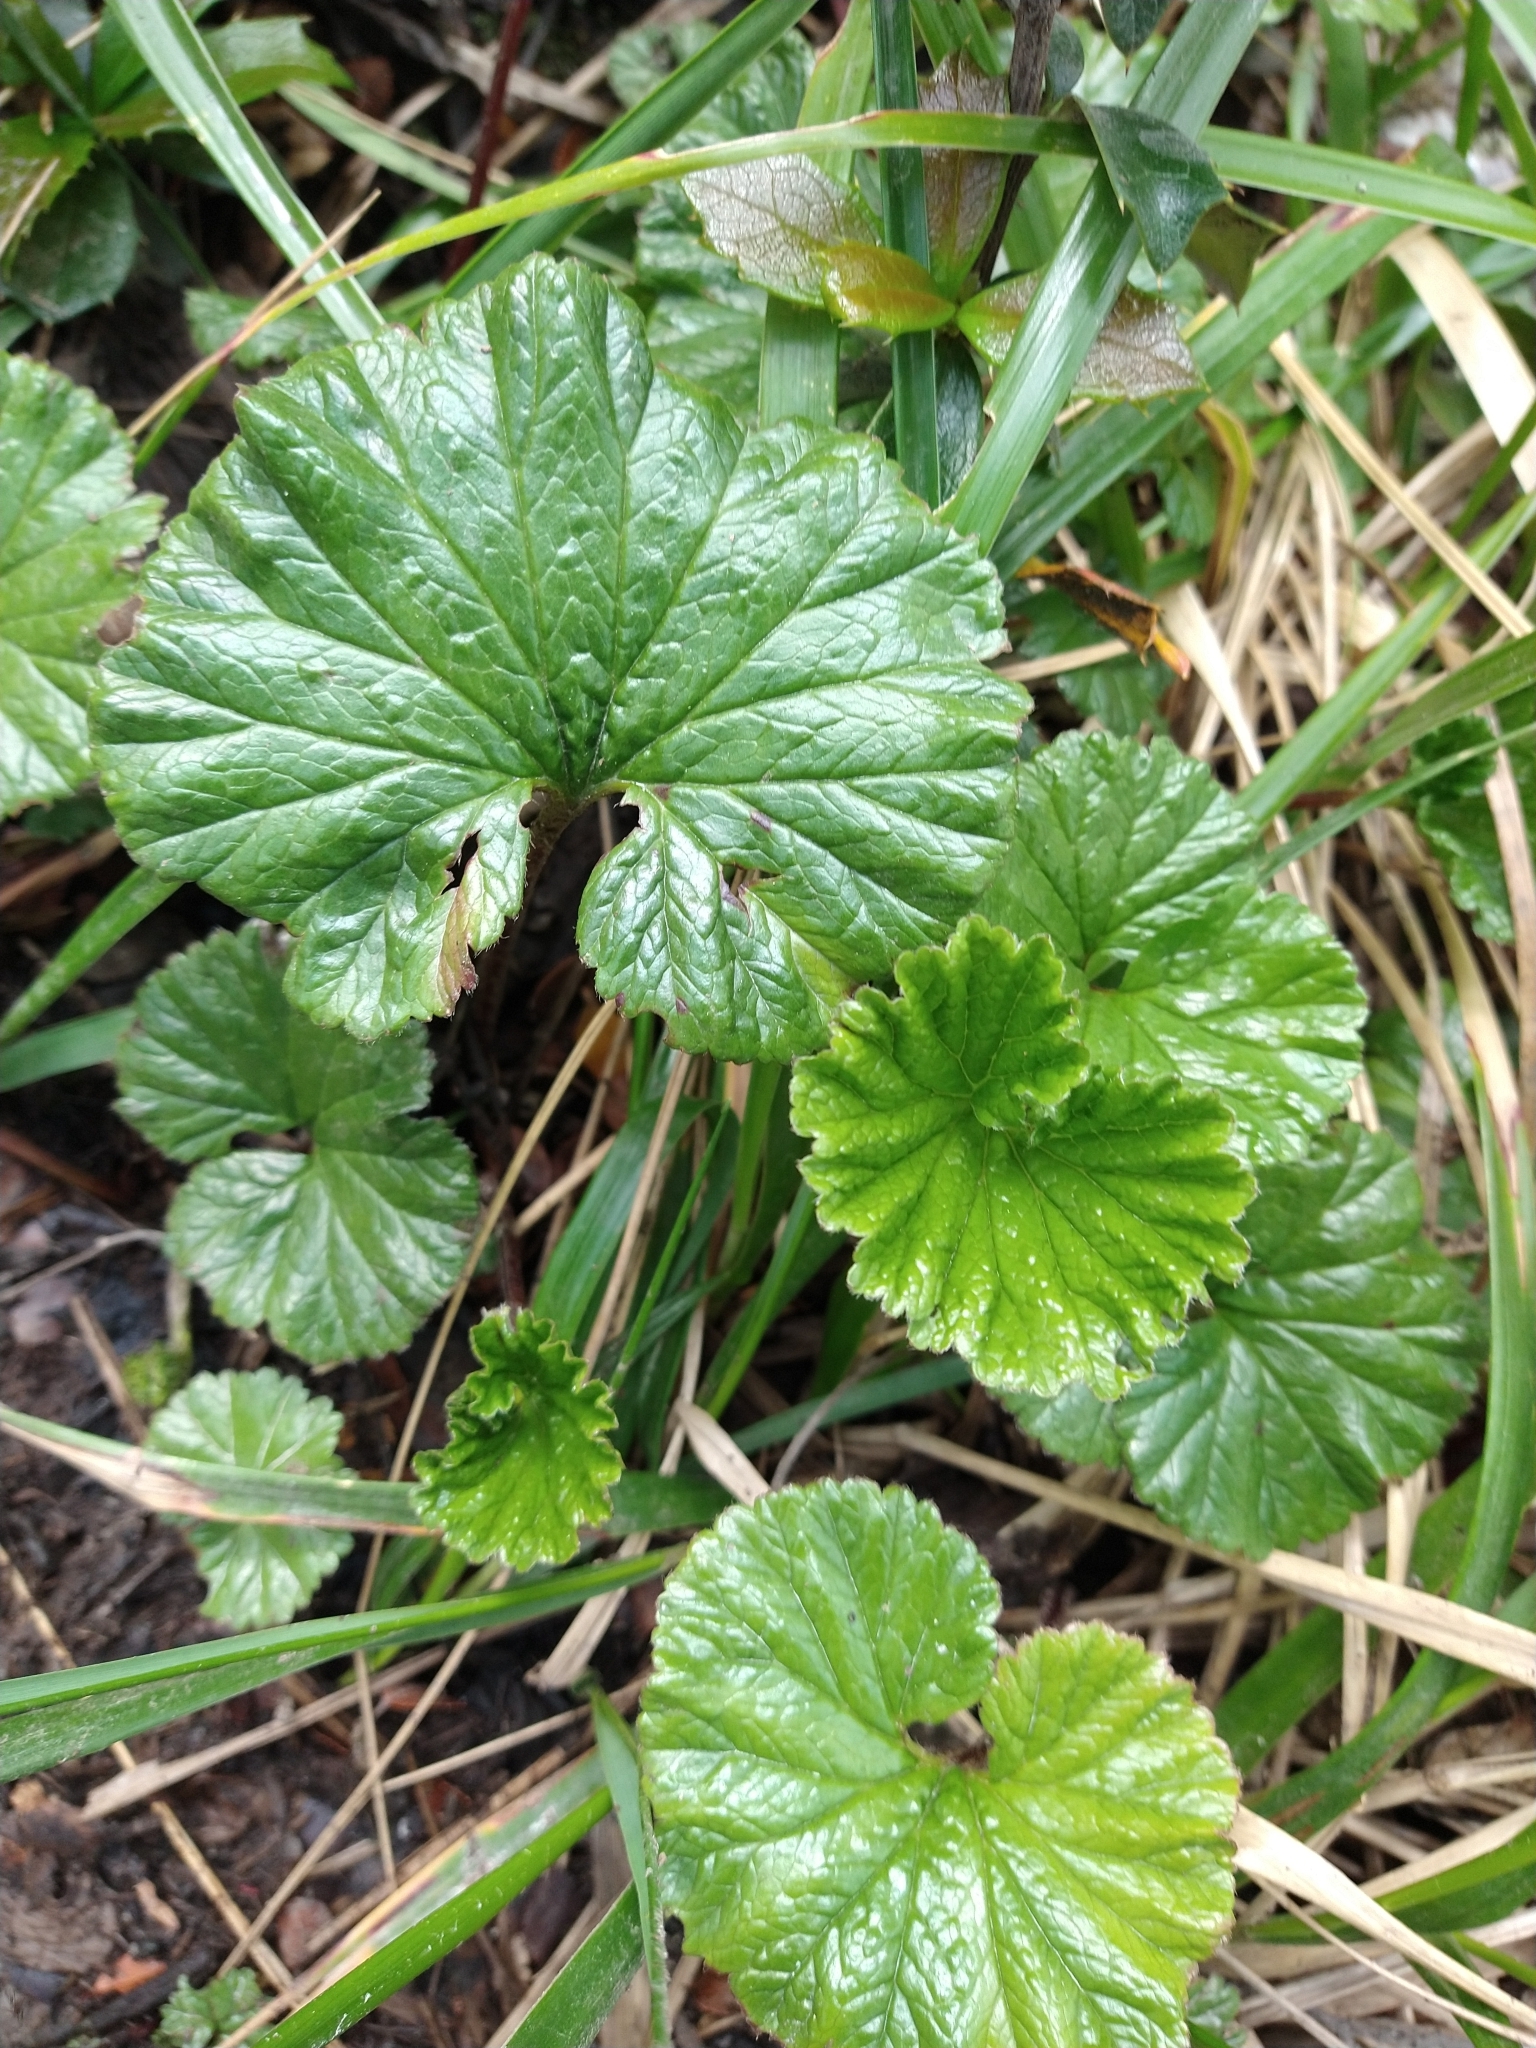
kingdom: Plantae
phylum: Tracheophyta
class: Magnoliopsida
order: Gunnerales
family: Gunneraceae
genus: Gunnera
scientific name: Gunnera magellanica
